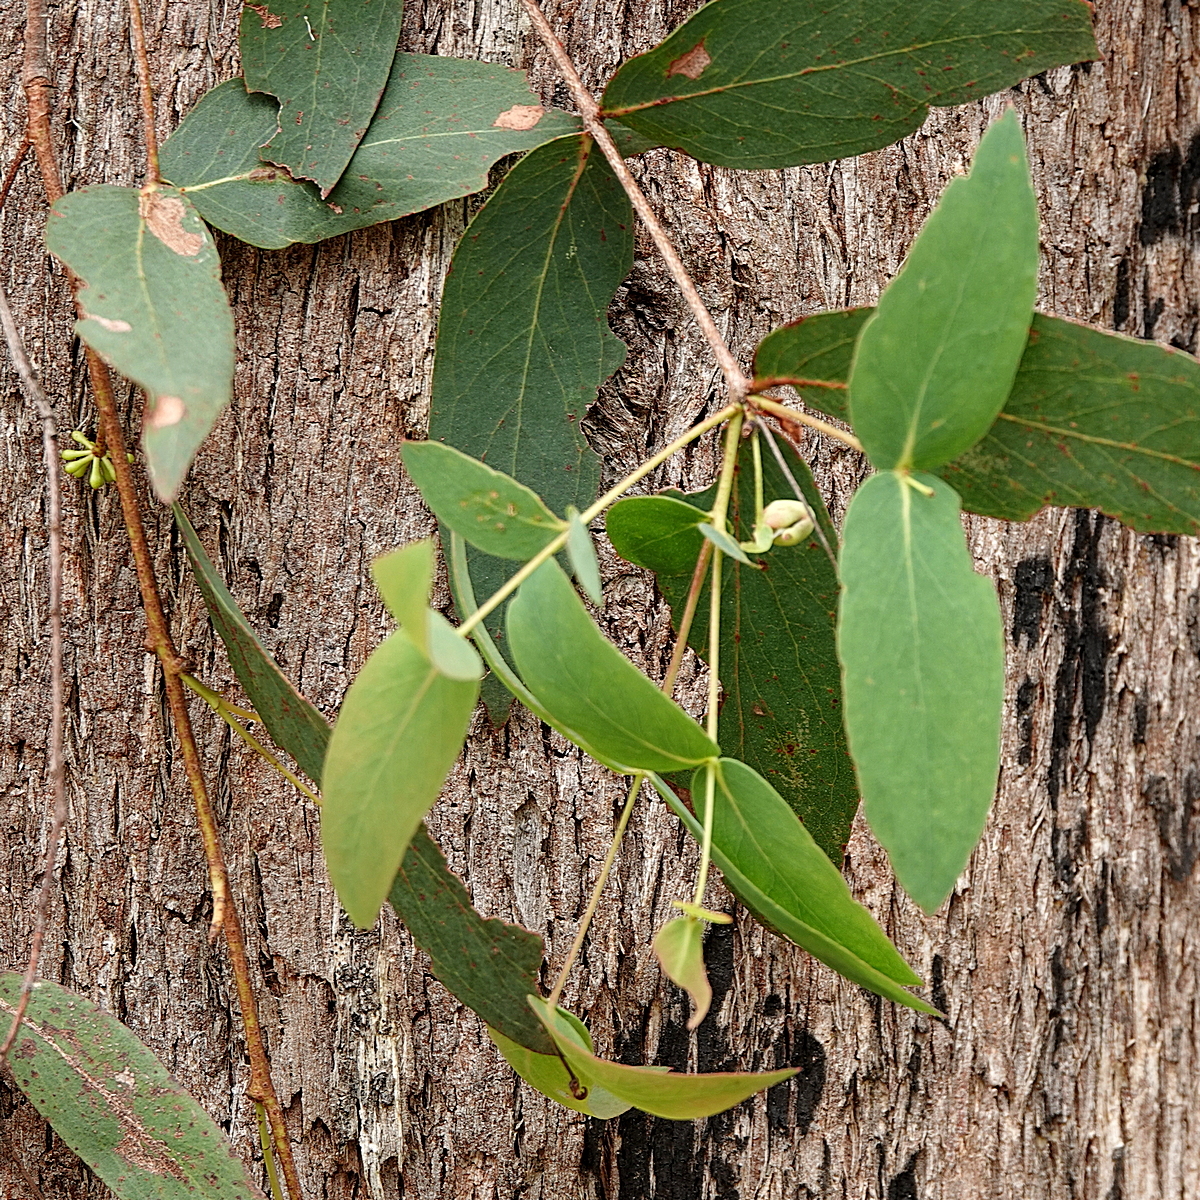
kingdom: Plantae
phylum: Tracheophyta
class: Magnoliopsida
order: Myrtales
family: Myrtaceae
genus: Eucalyptus
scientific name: Eucalyptus radiata
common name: Narrow-leaved-peppermint
